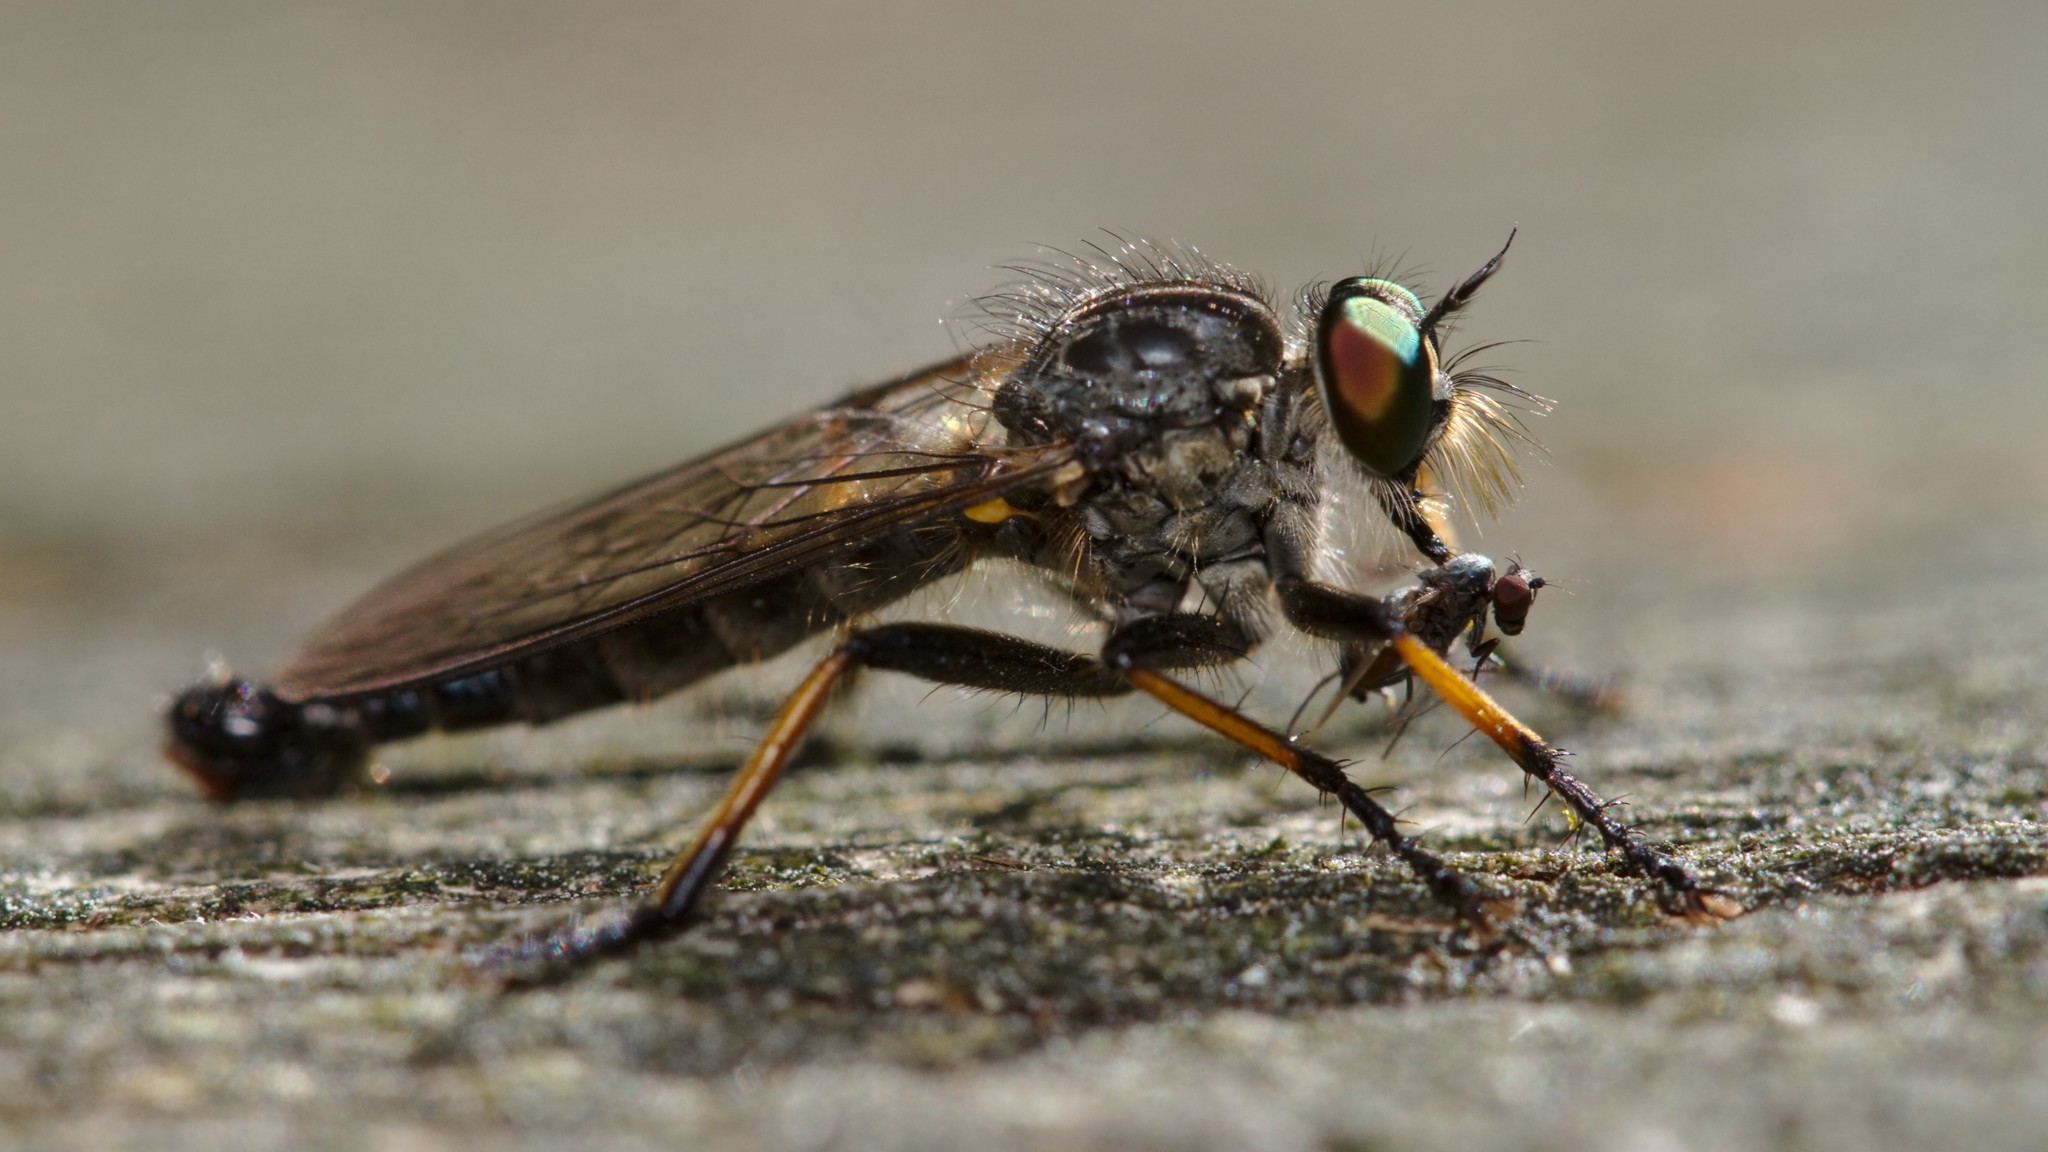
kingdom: Animalia
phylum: Arthropoda
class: Insecta
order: Diptera
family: Asilidae
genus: Neoitamus
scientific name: Neoitamus cyanurus
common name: Common awl robberfly
